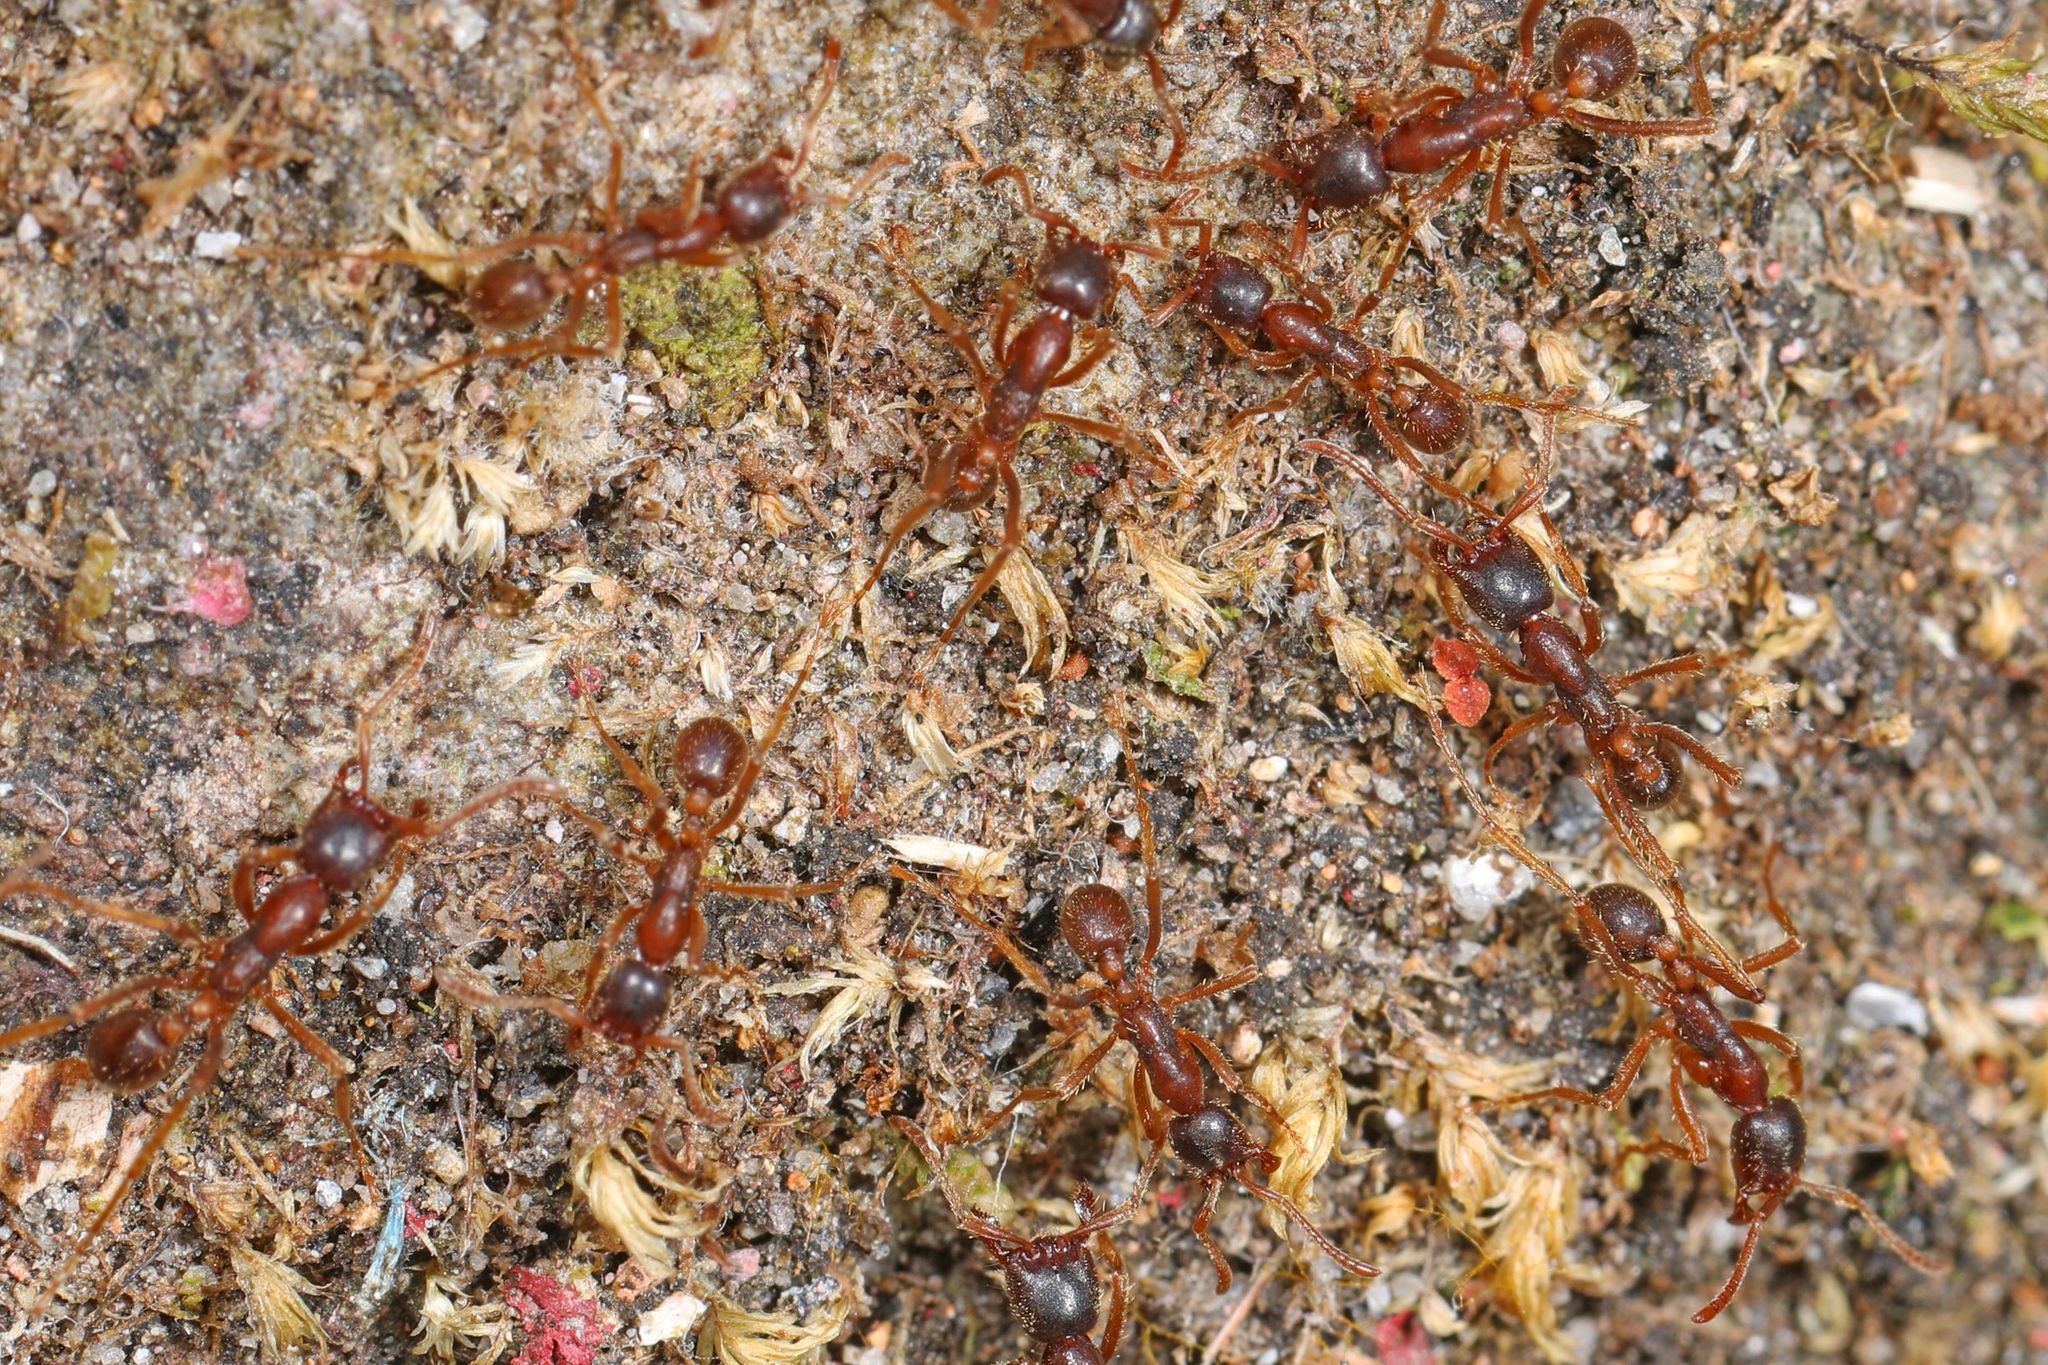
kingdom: Animalia
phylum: Arthropoda
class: Insecta
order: Hymenoptera
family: Formicidae
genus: Labidus
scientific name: Labidus spininodis
